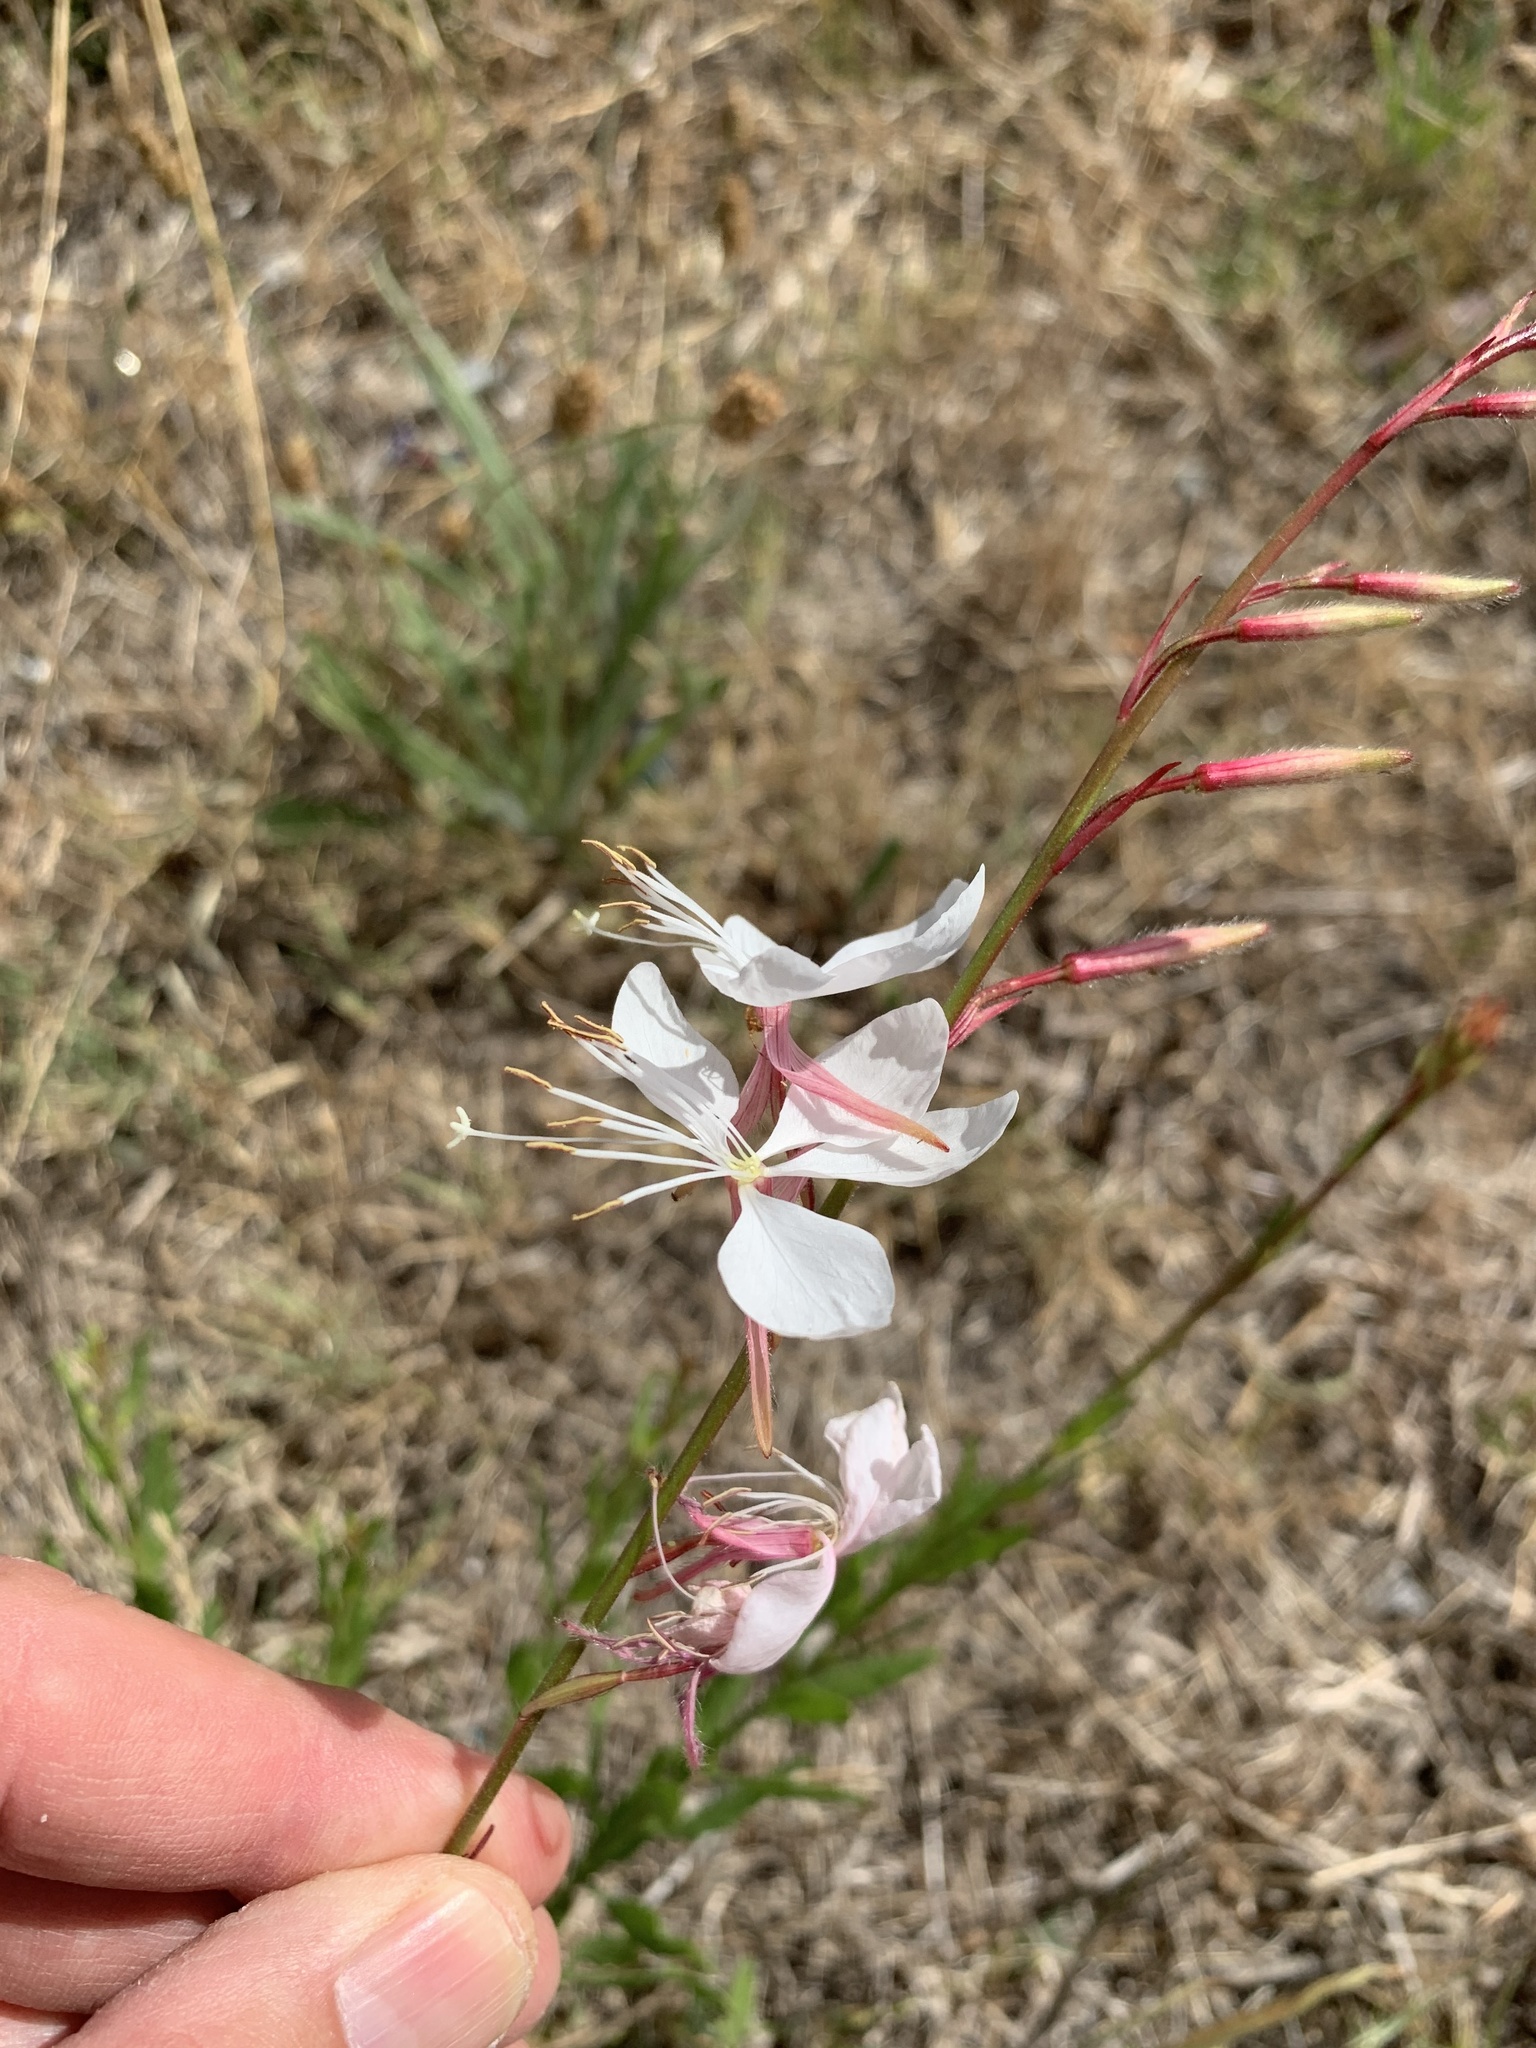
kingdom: Plantae
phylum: Tracheophyta
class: Magnoliopsida
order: Myrtales
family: Onagraceae
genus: Oenothera
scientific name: Oenothera lindheimeri
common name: Lindheimer's beeblossom
